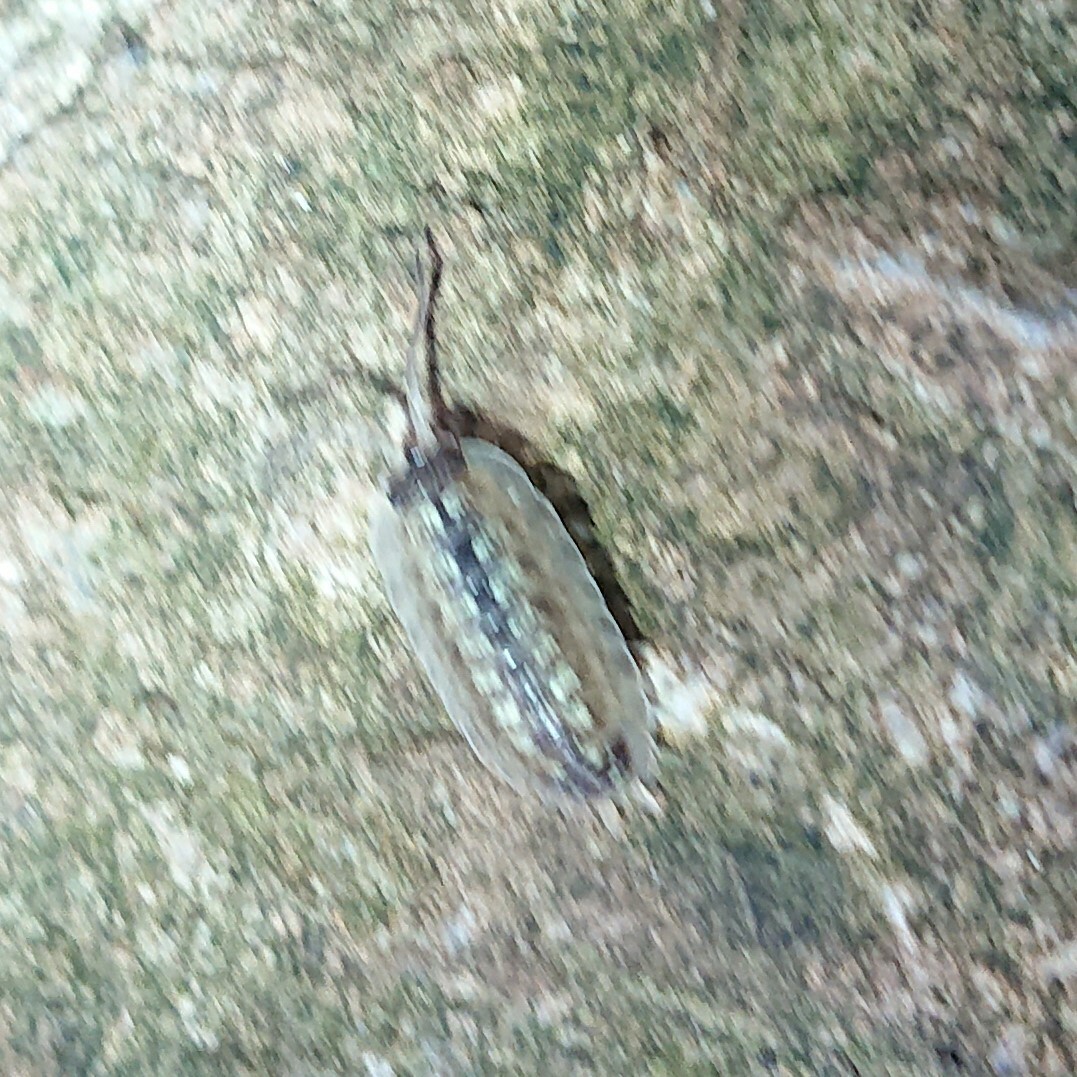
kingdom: Animalia
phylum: Arthropoda
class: Malacostraca
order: Isopoda
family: Porcellionidae
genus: Porcellio
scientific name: Porcellio spinicornis
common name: Painted woodlouse
